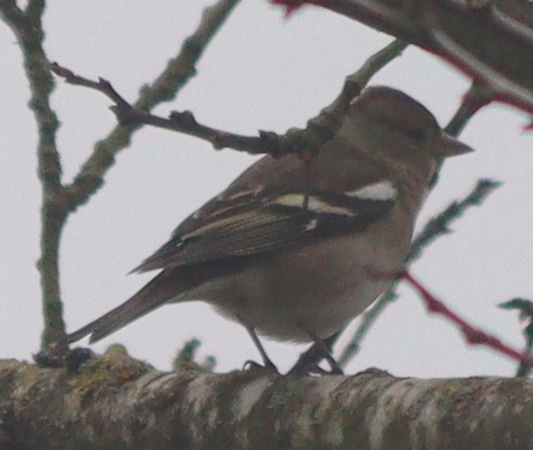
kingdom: Animalia
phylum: Chordata
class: Aves
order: Passeriformes
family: Fringillidae
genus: Fringilla
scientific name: Fringilla coelebs
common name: Common chaffinch
